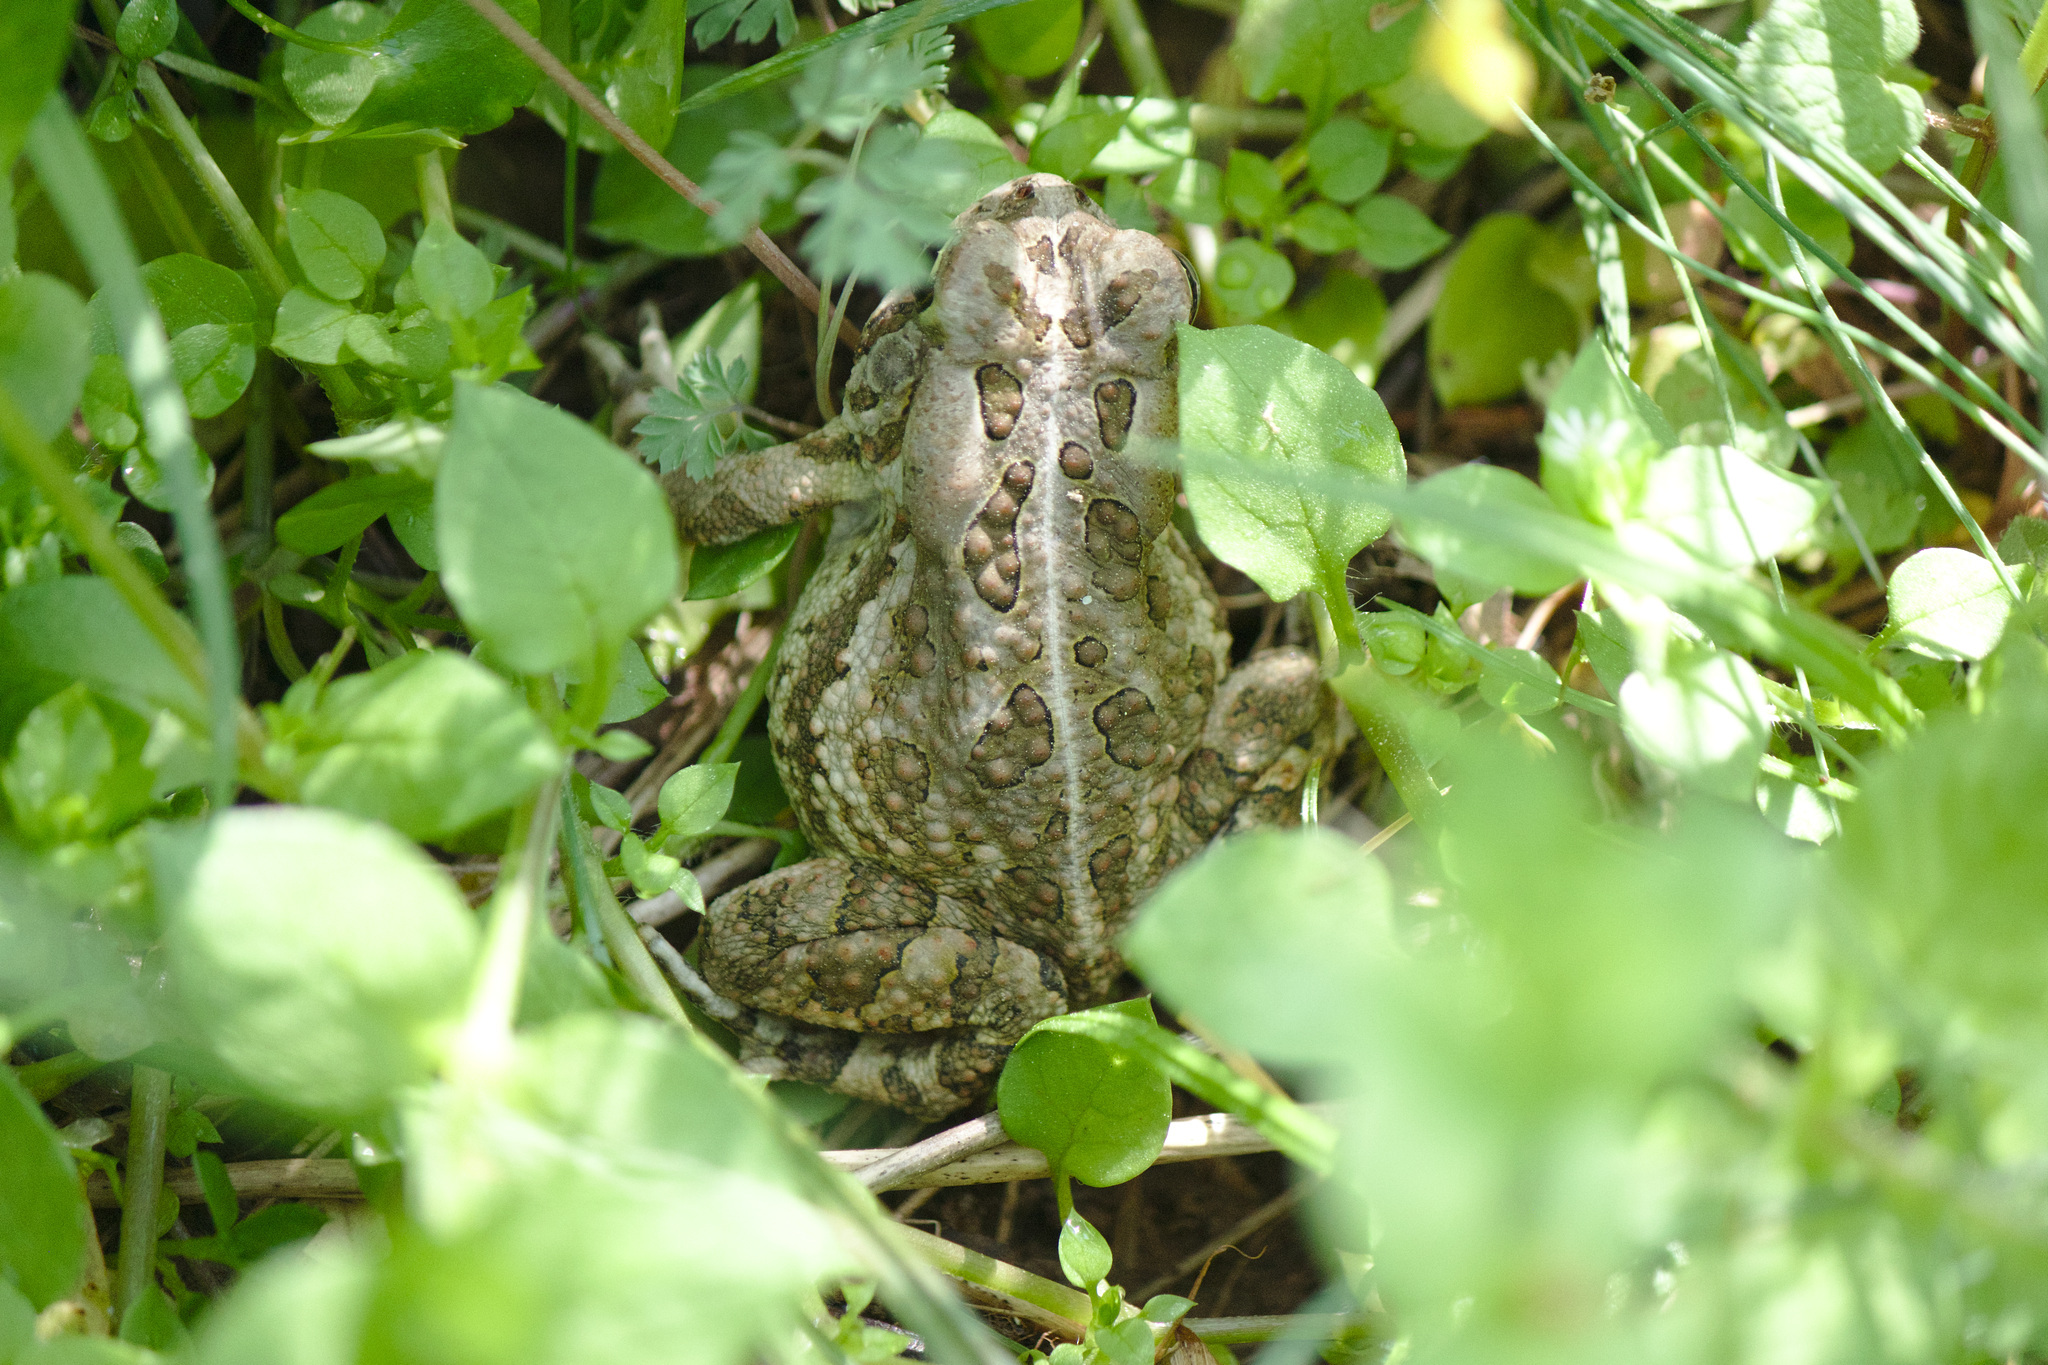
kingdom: Animalia
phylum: Chordata
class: Amphibia
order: Anura
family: Bufonidae
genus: Anaxyrus
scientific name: Anaxyrus fowleri
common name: Fowler's toad
